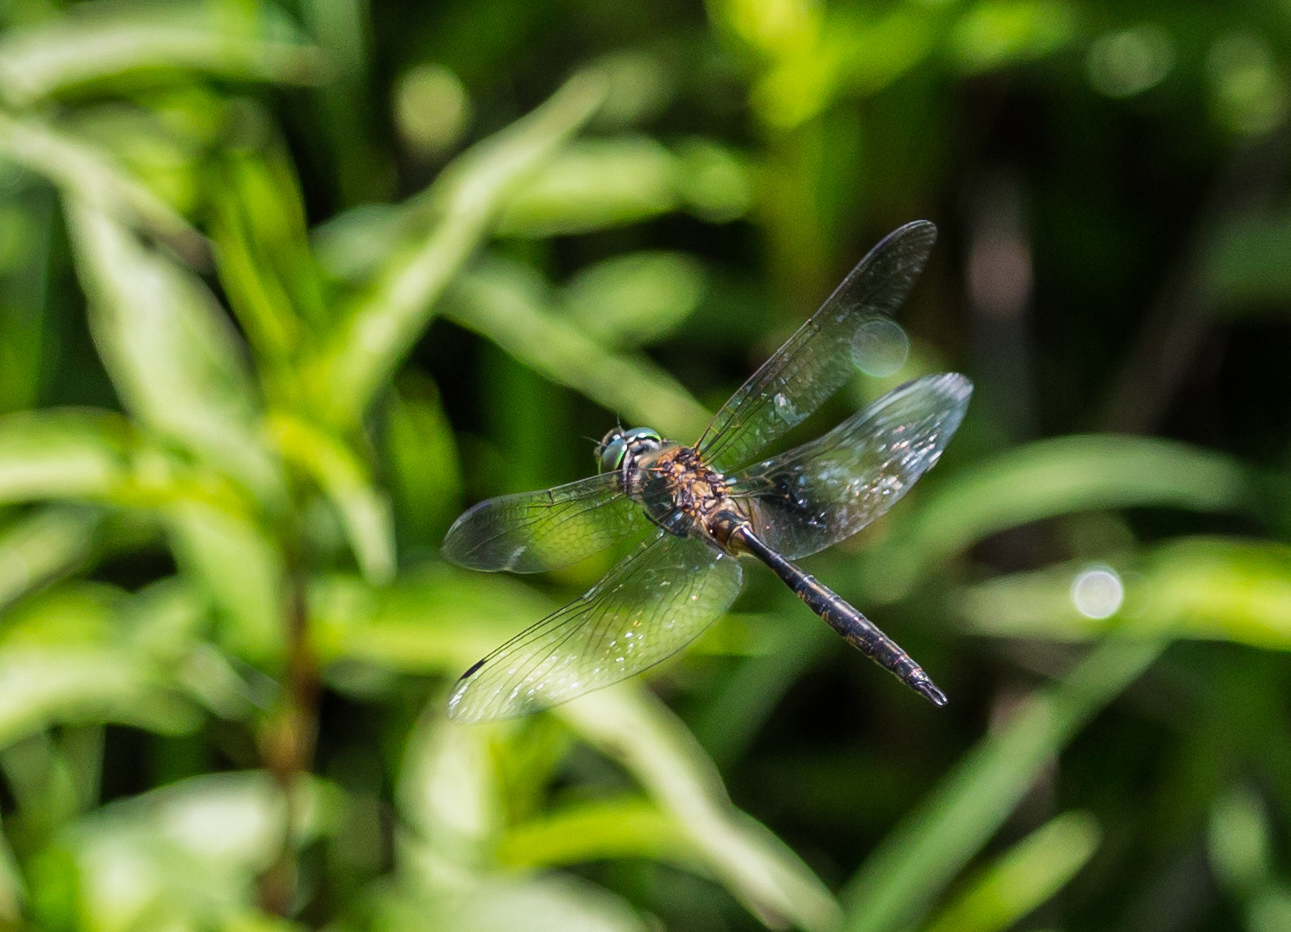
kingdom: Animalia
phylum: Arthropoda
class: Insecta
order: Odonata
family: Corduliidae
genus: Somatochlora
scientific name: Somatochlora flavomaculata
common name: Yellow-spotted emerald
